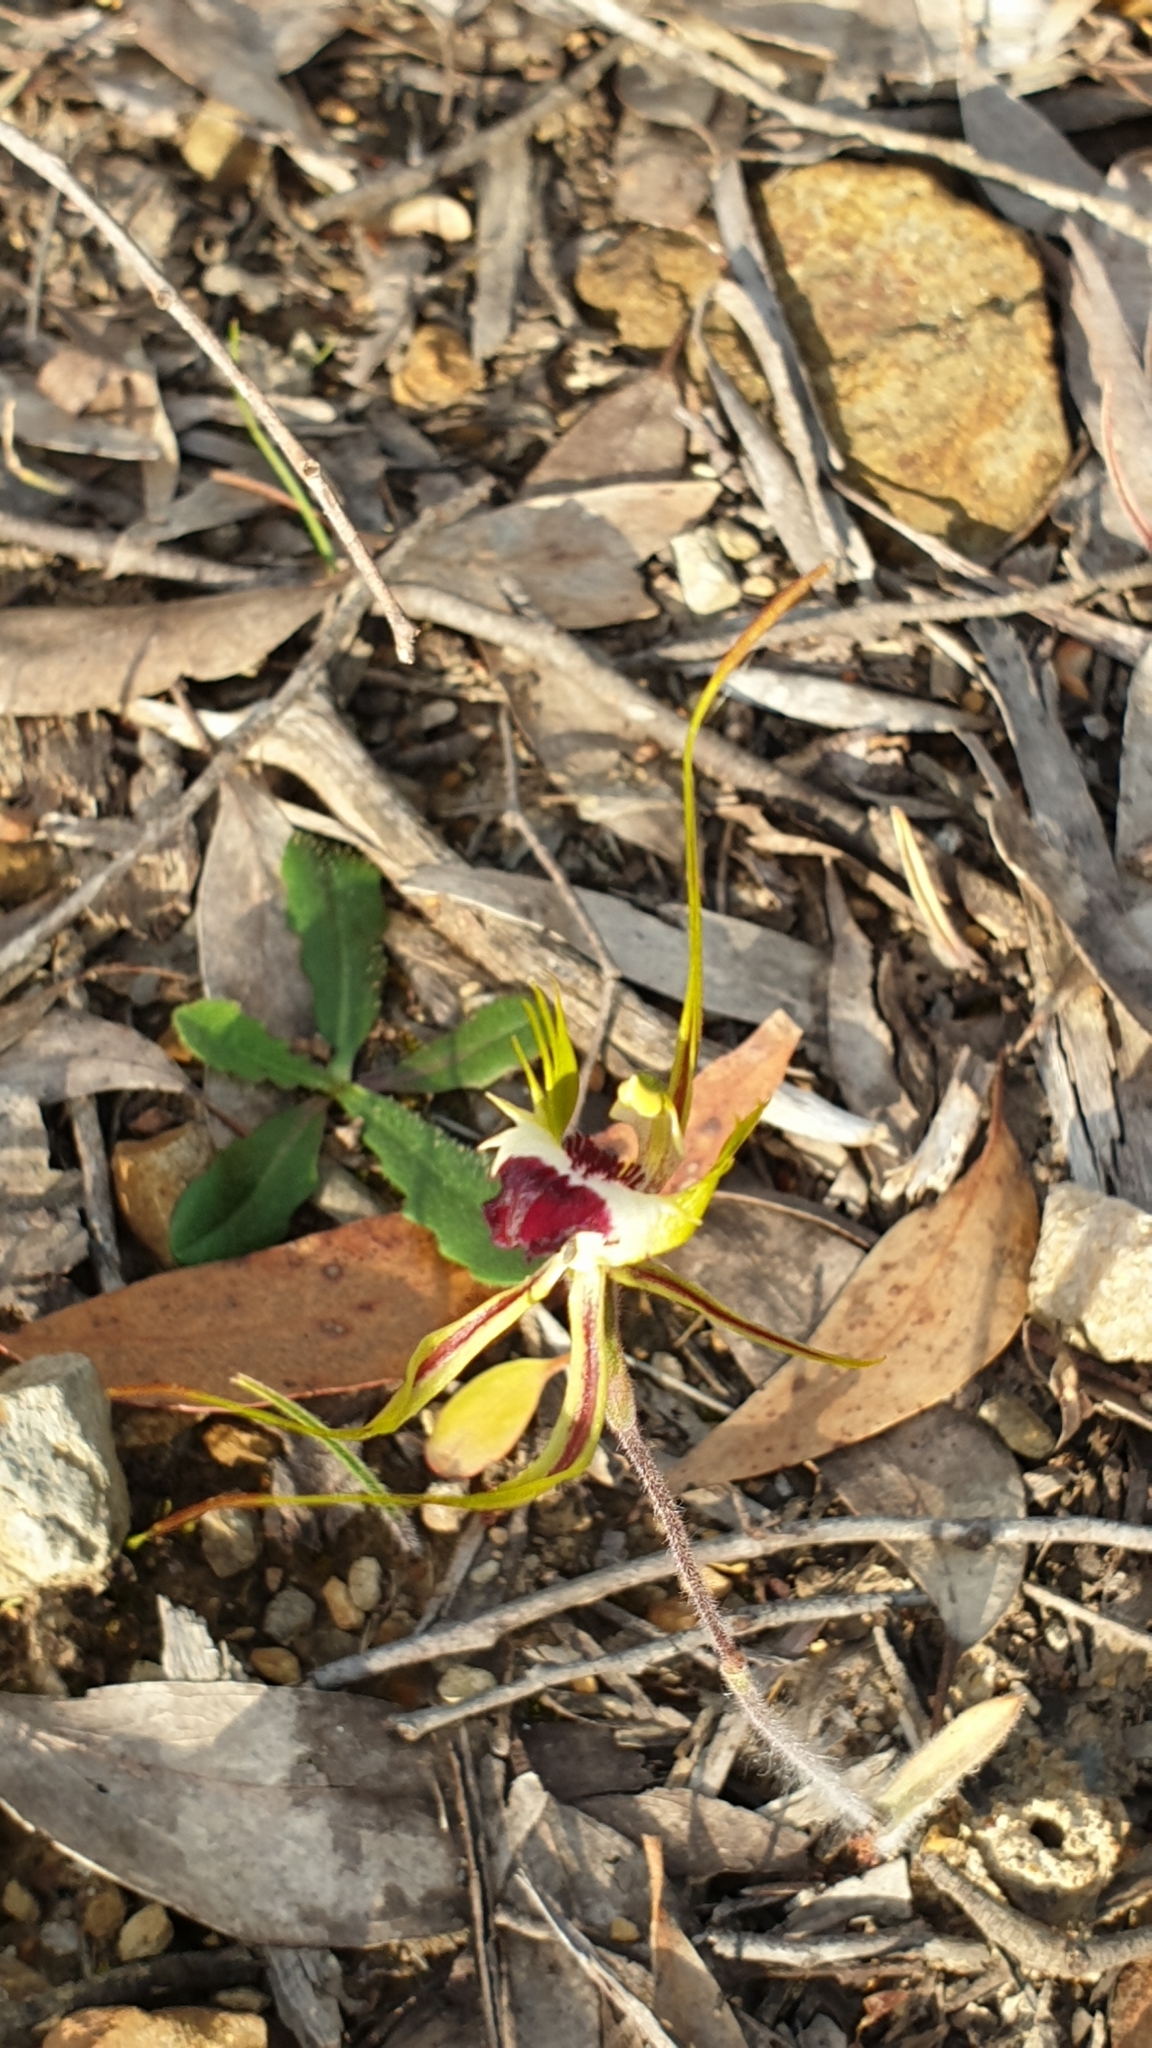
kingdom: Plantae
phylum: Tracheophyta
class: Liliopsida
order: Asparagales
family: Orchidaceae
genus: Caladenia
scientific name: Caladenia tentaculata
